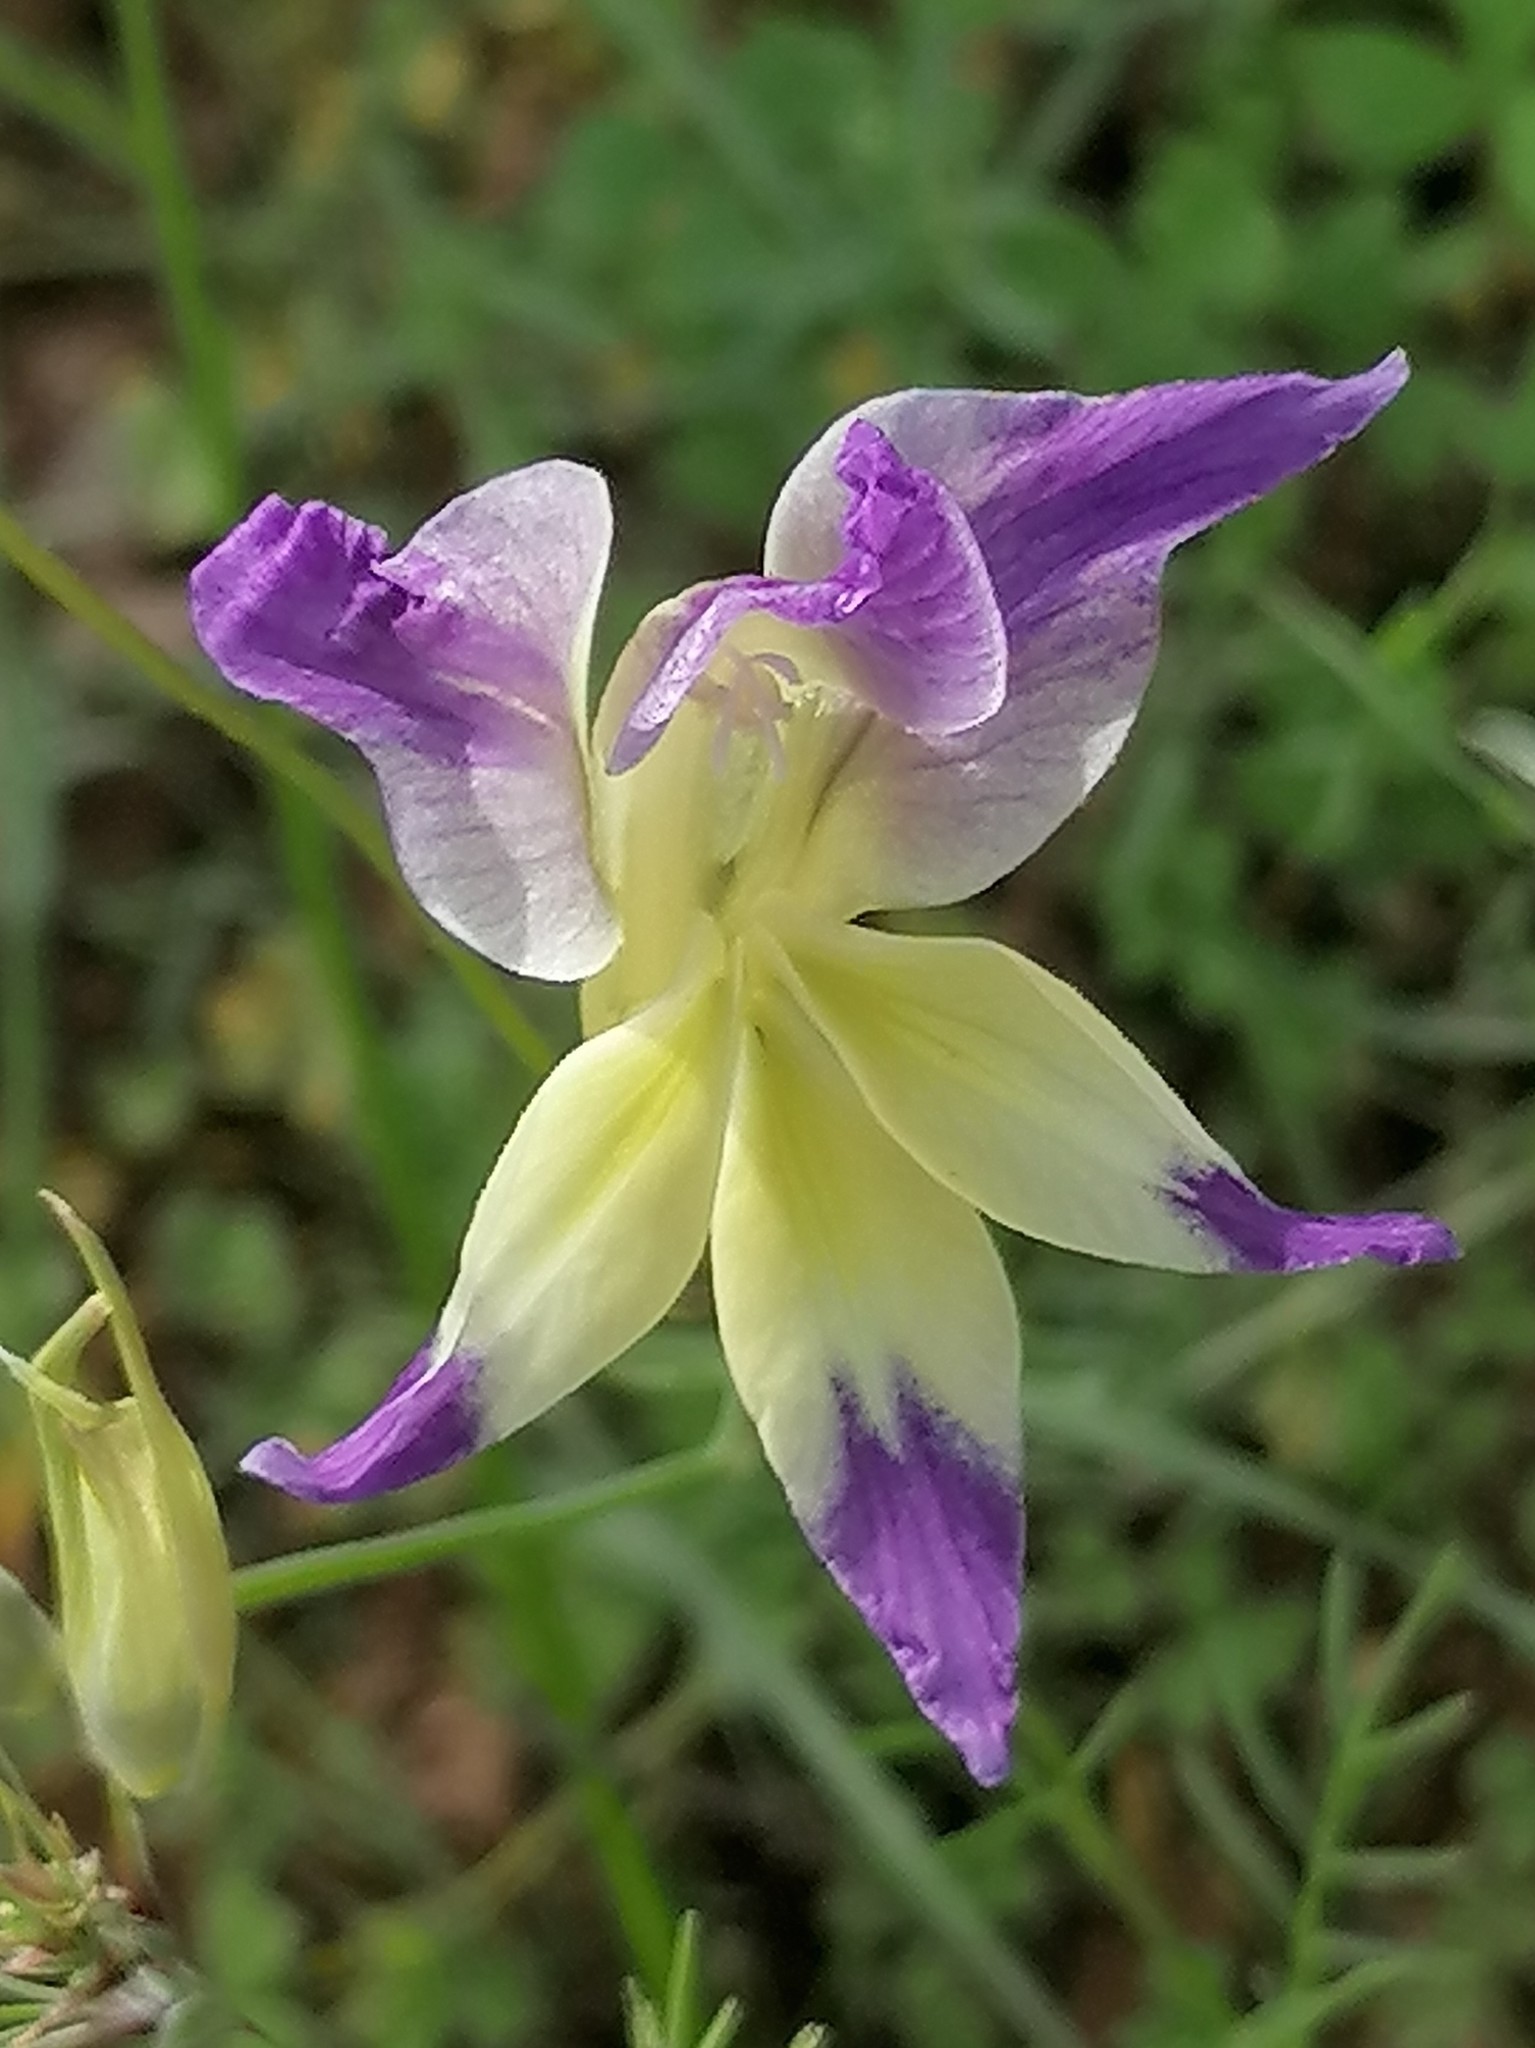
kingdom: Plantae
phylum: Tracheophyta
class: Liliopsida
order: Asparagales
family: Iridaceae
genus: Gladiolus
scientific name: Gladiolus venustus
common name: Purple kalkoentjie
